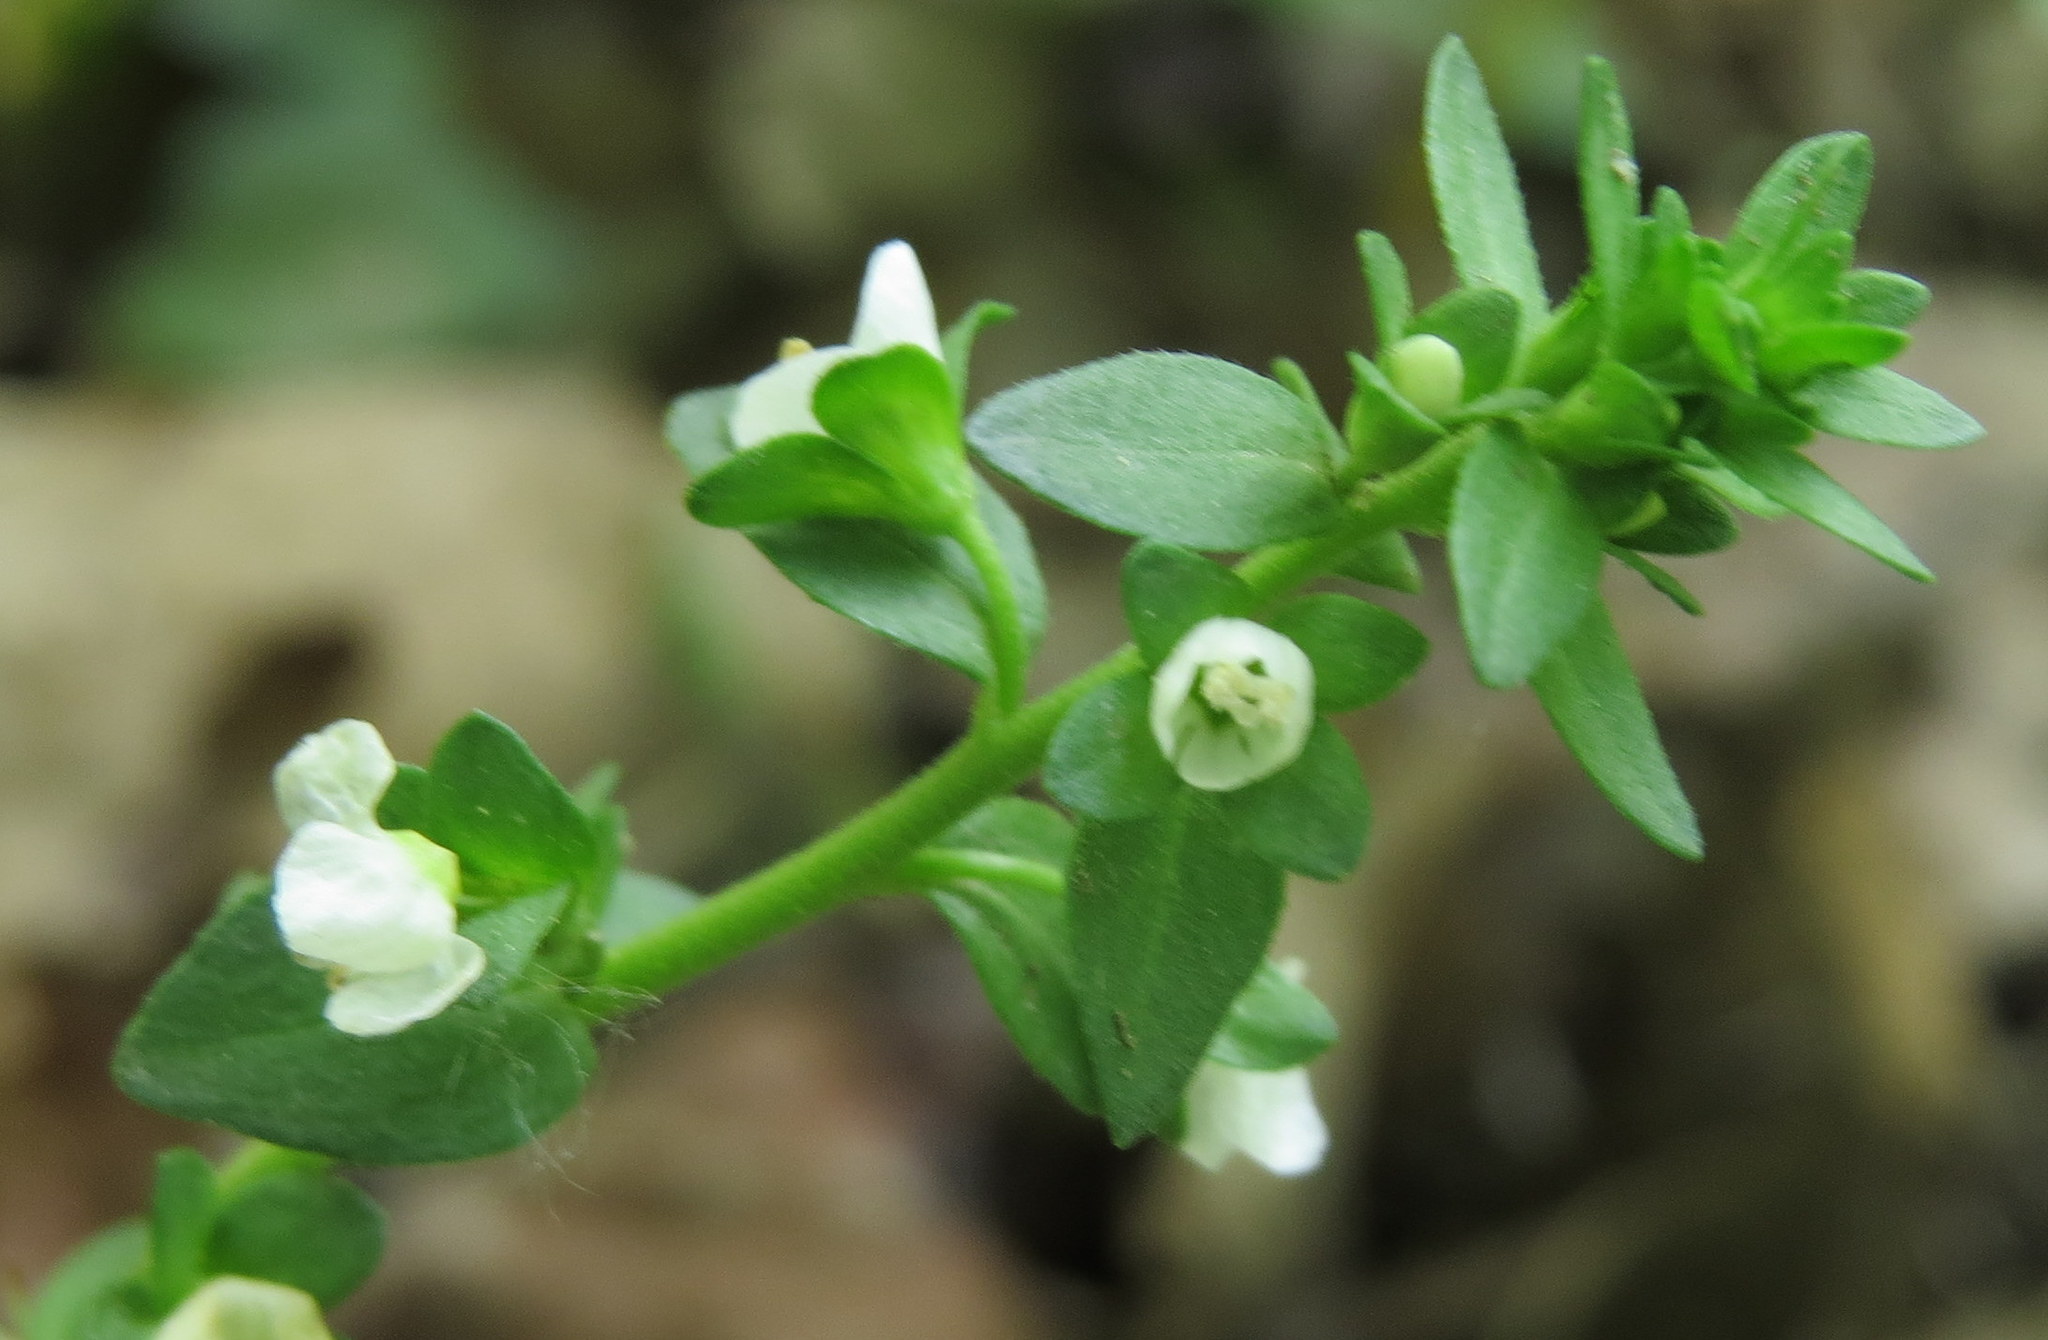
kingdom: Plantae
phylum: Tracheophyta
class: Magnoliopsida
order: Lamiales
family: Plantaginaceae
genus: Veronica
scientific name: Veronica serpyllifolia
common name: Thyme-leaved speedwell
